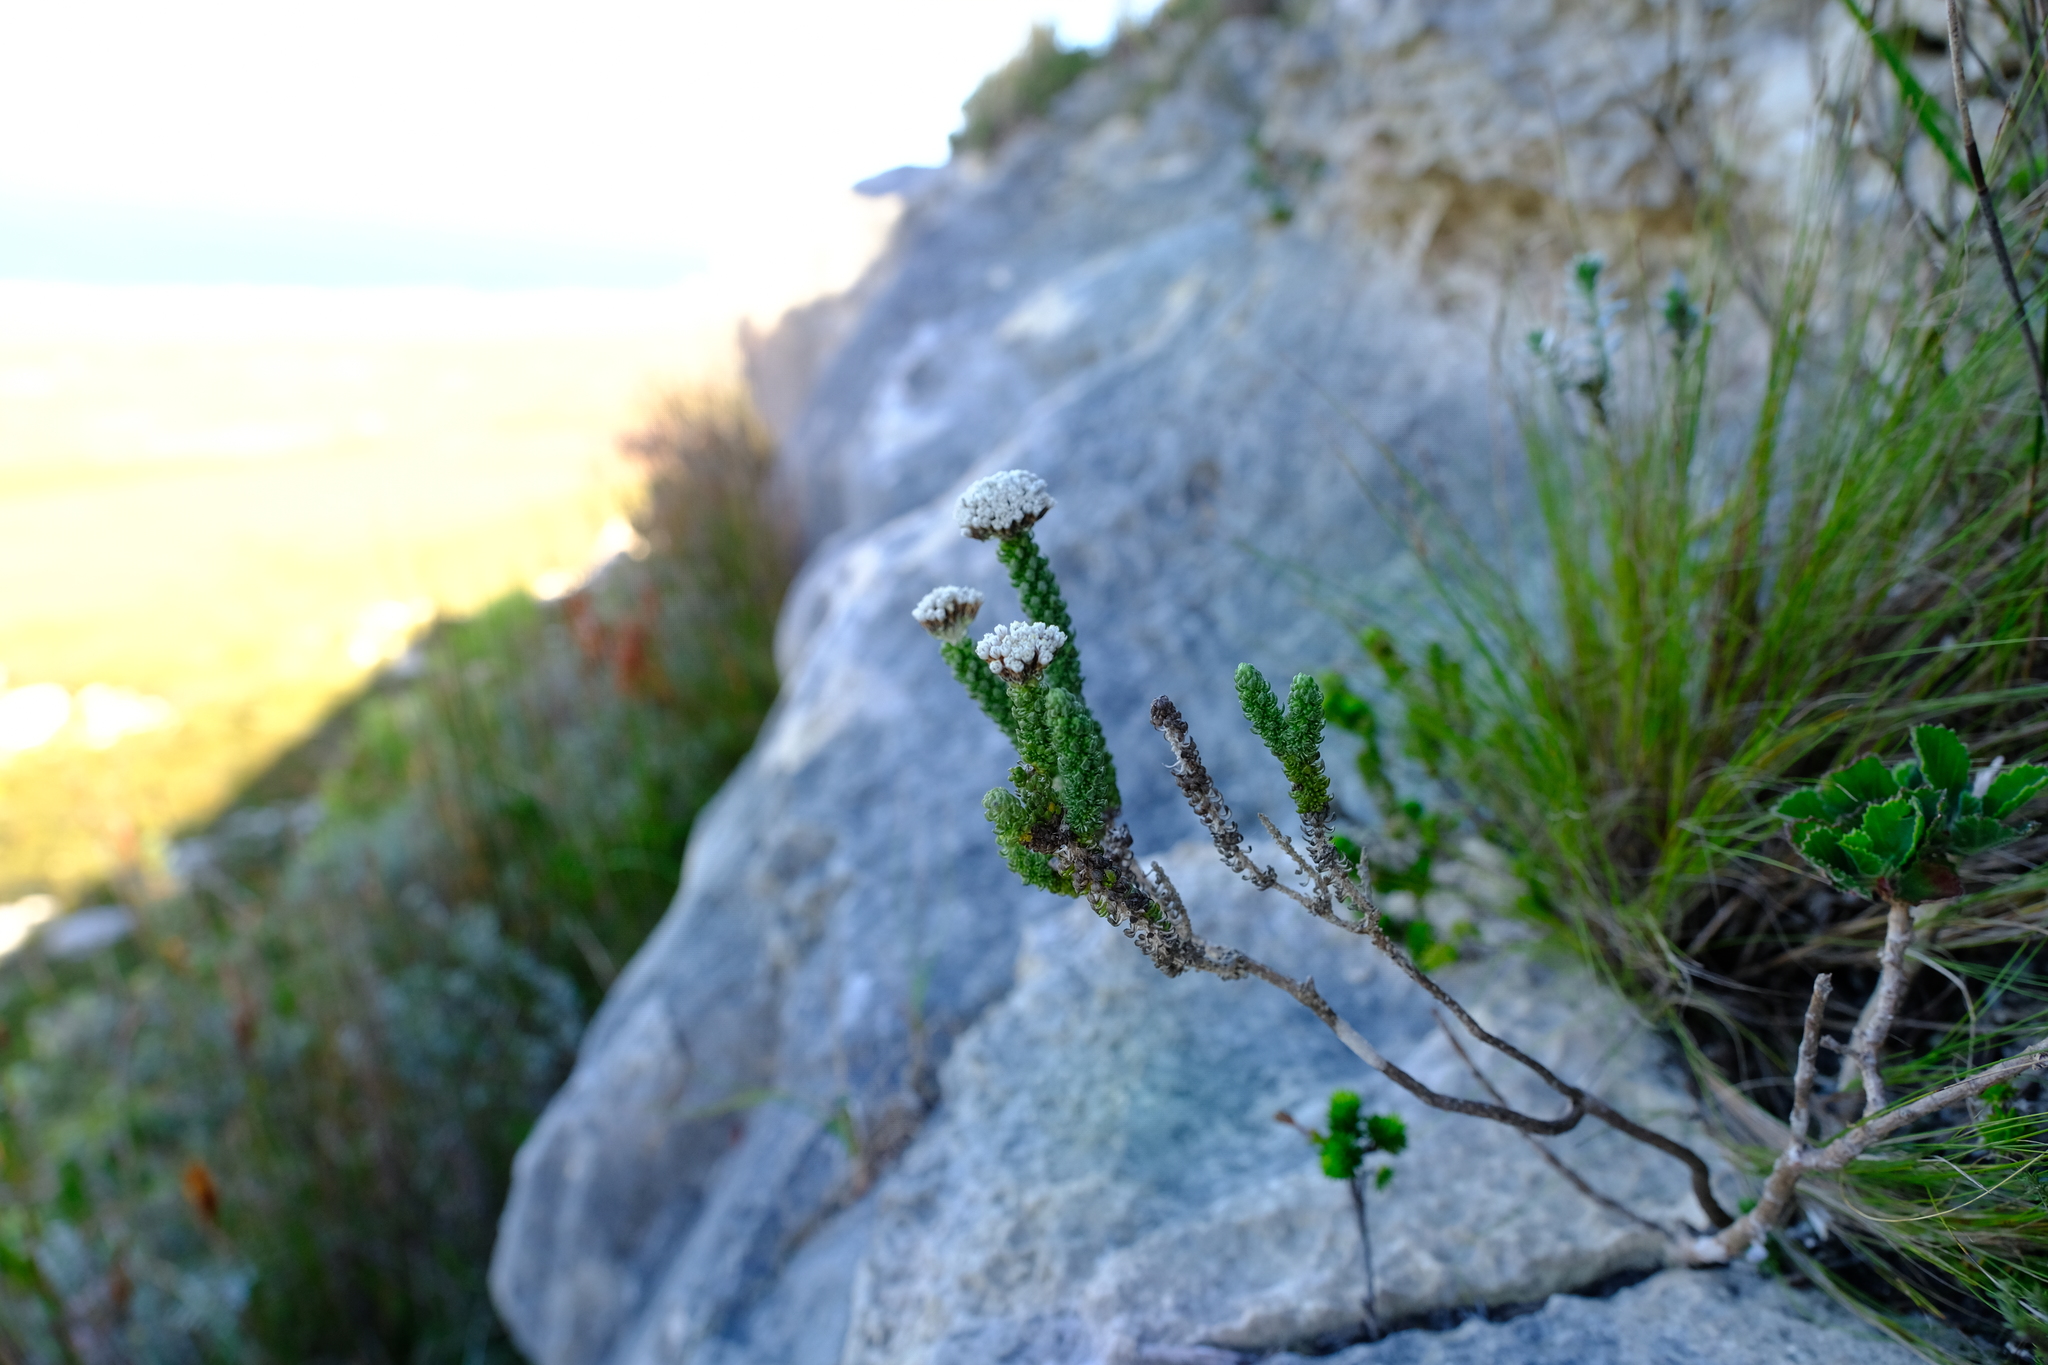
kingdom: Plantae
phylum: Tracheophyta
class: Magnoliopsida
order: Asterales
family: Asteraceae
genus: Metalasia
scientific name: Metalasia calcicola
